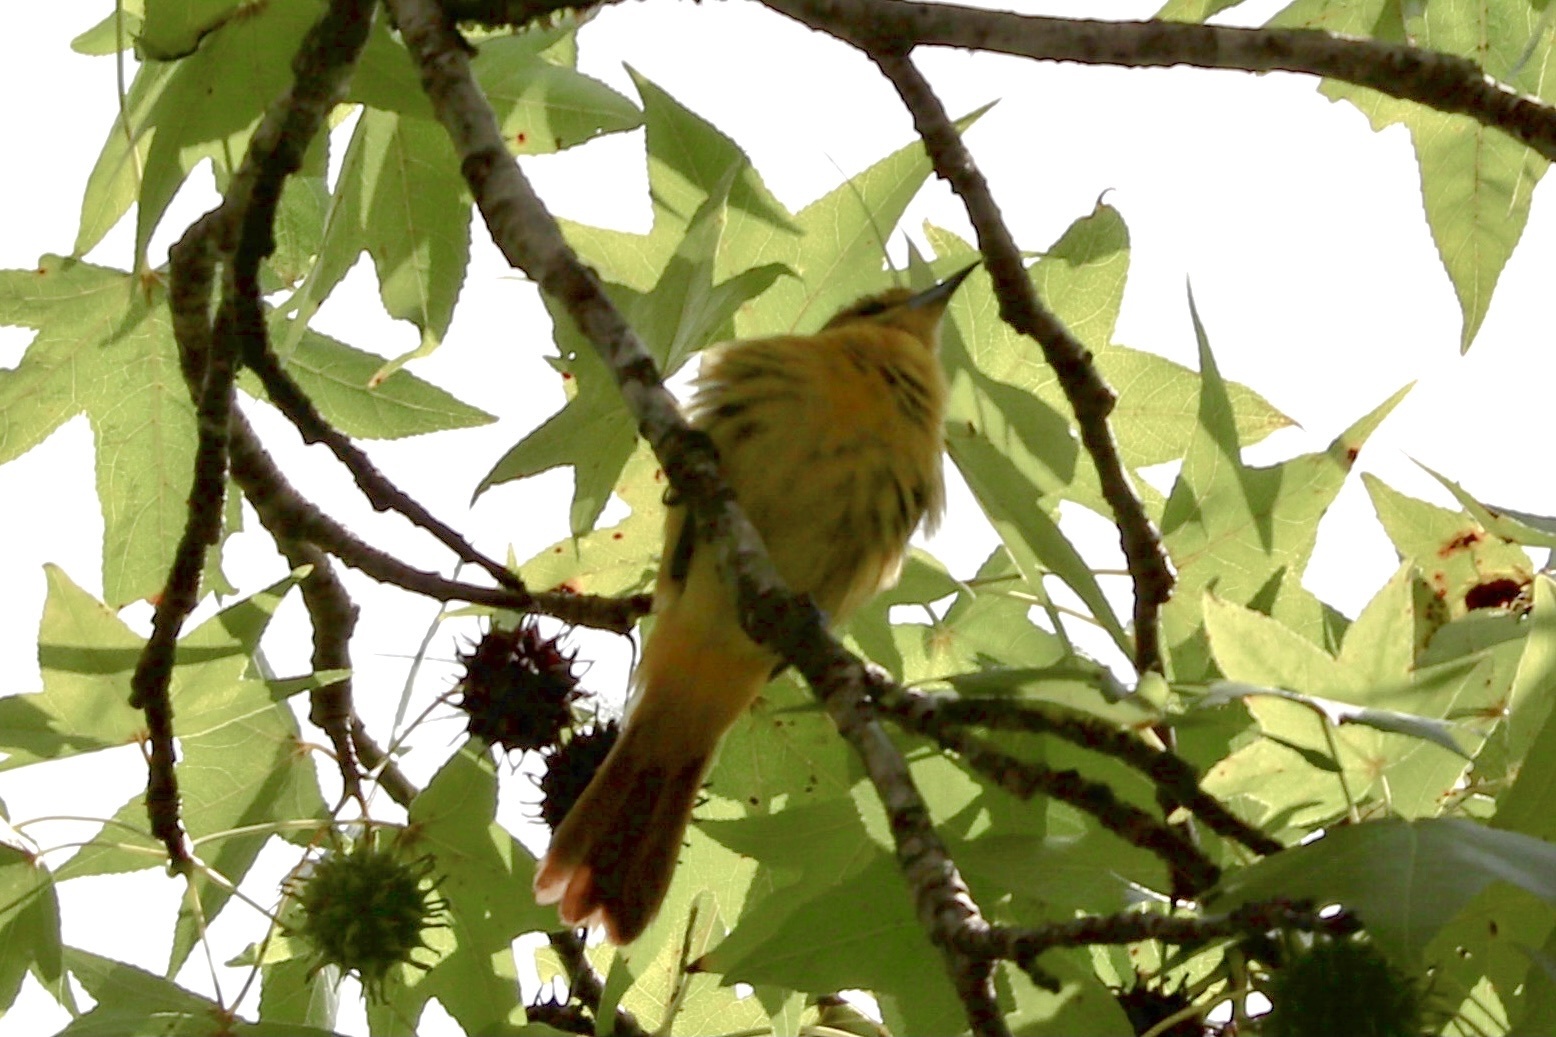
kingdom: Animalia
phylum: Chordata
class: Aves
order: Passeriformes
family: Icteridae
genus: Icterus
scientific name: Icterus galbula
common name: Baltimore oriole
